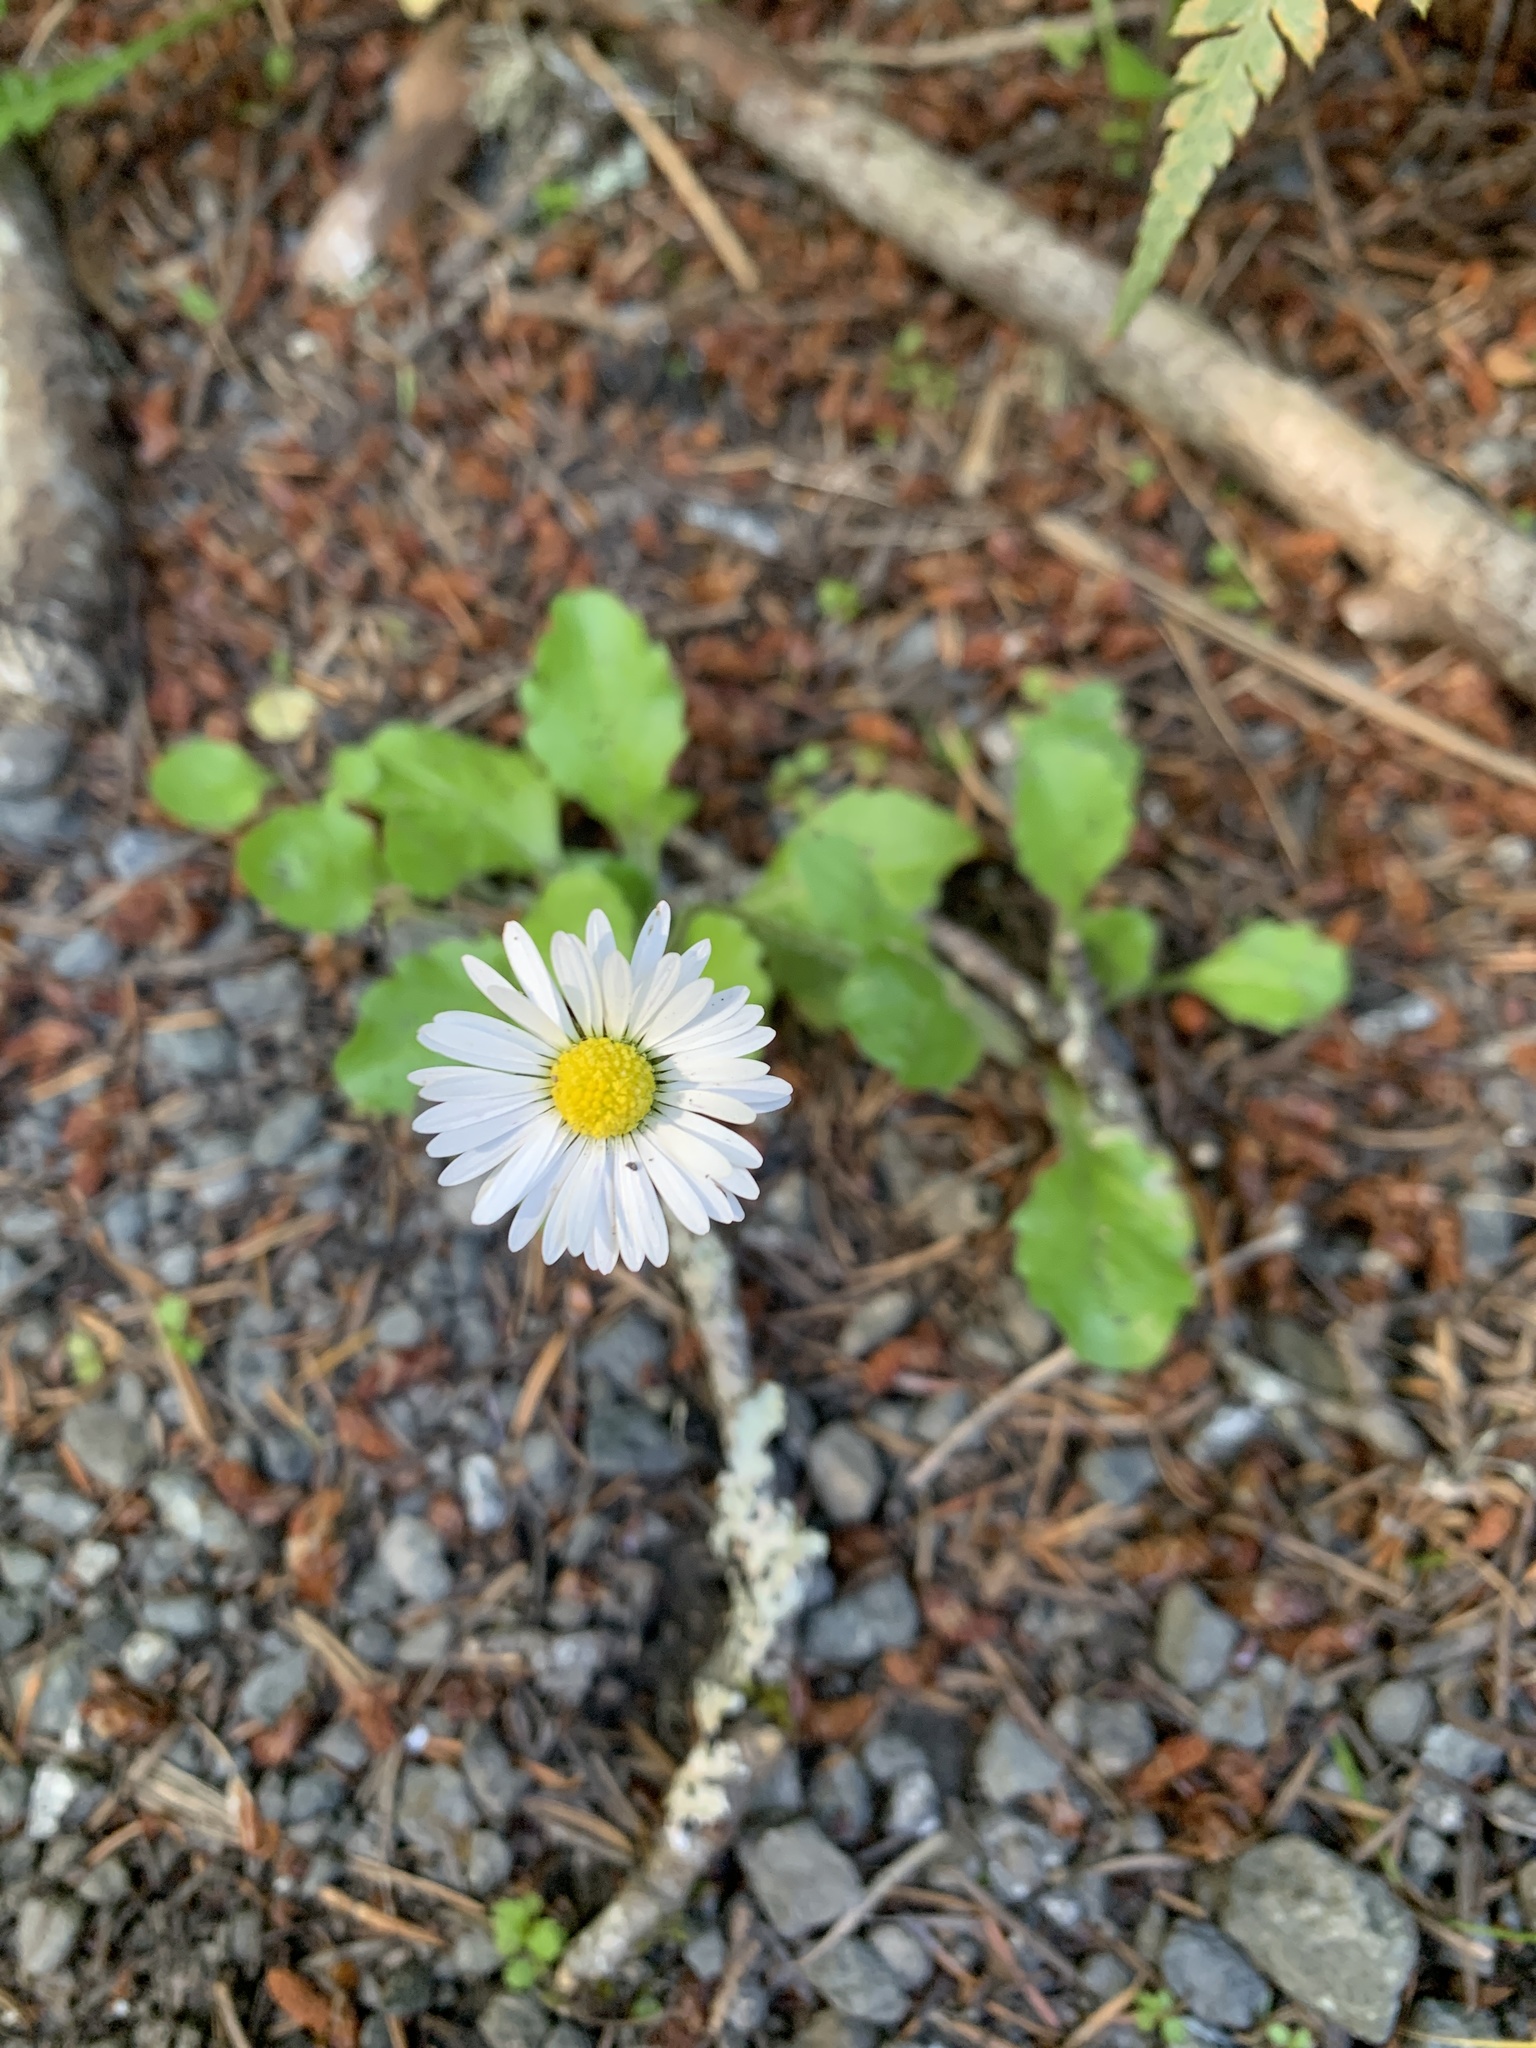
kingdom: Plantae
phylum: Tracheophyta
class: Magnoliopsida
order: Asterales
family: Asteraceae
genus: Bellis
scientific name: Bellis perennis
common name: Lawndaisy
